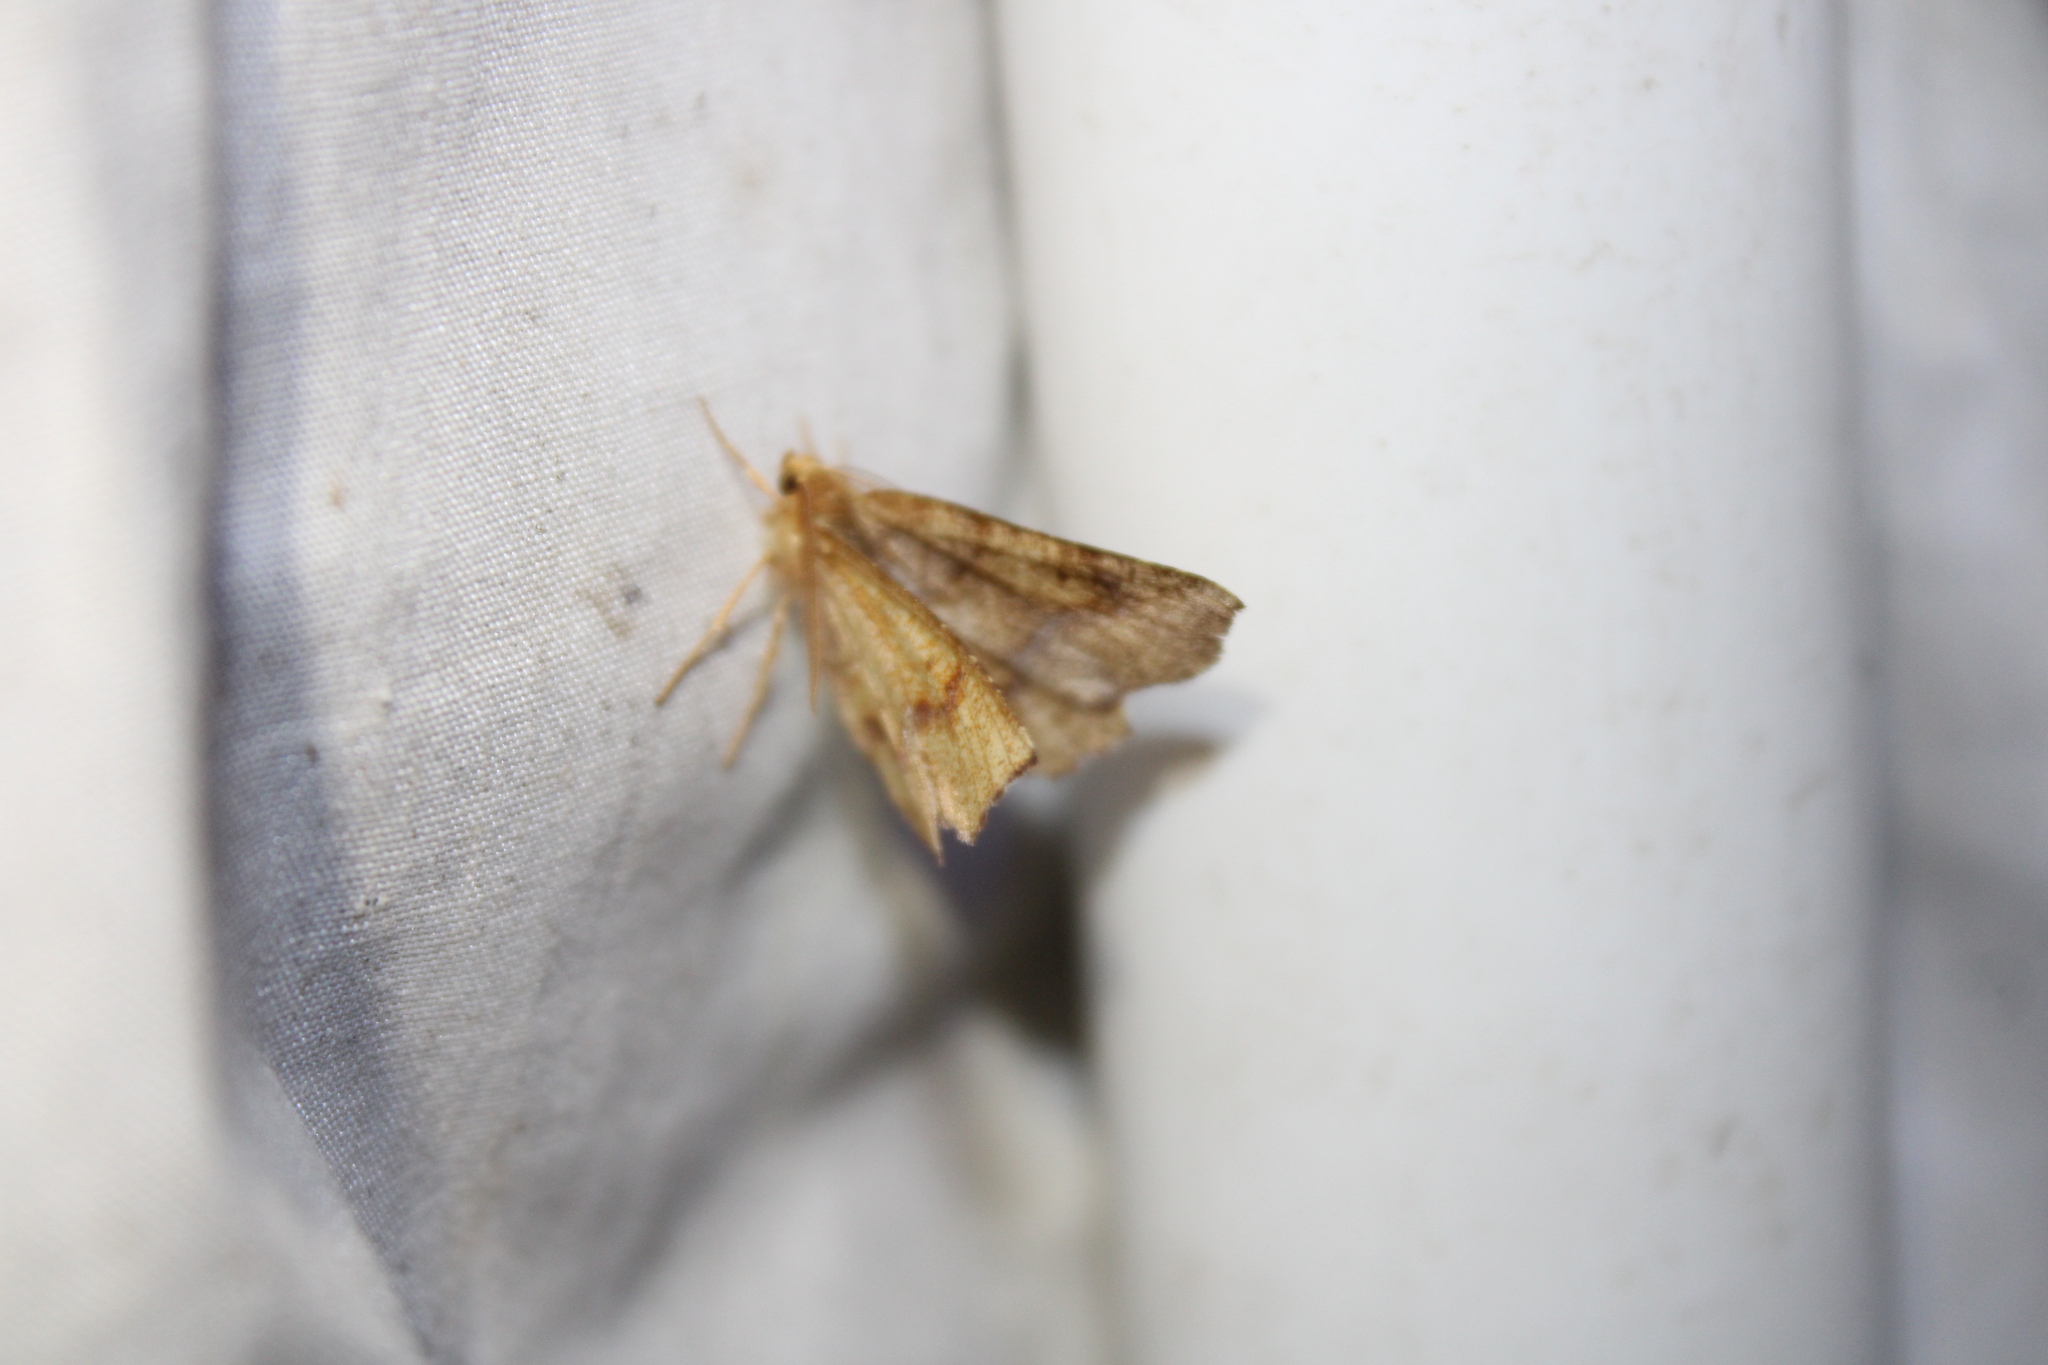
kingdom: Animalia
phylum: Arthropoda
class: Insecta
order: Lepidoptera
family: Geometridae
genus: Metarranthis
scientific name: Metarranthis hypochraria
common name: Common metarranthis
